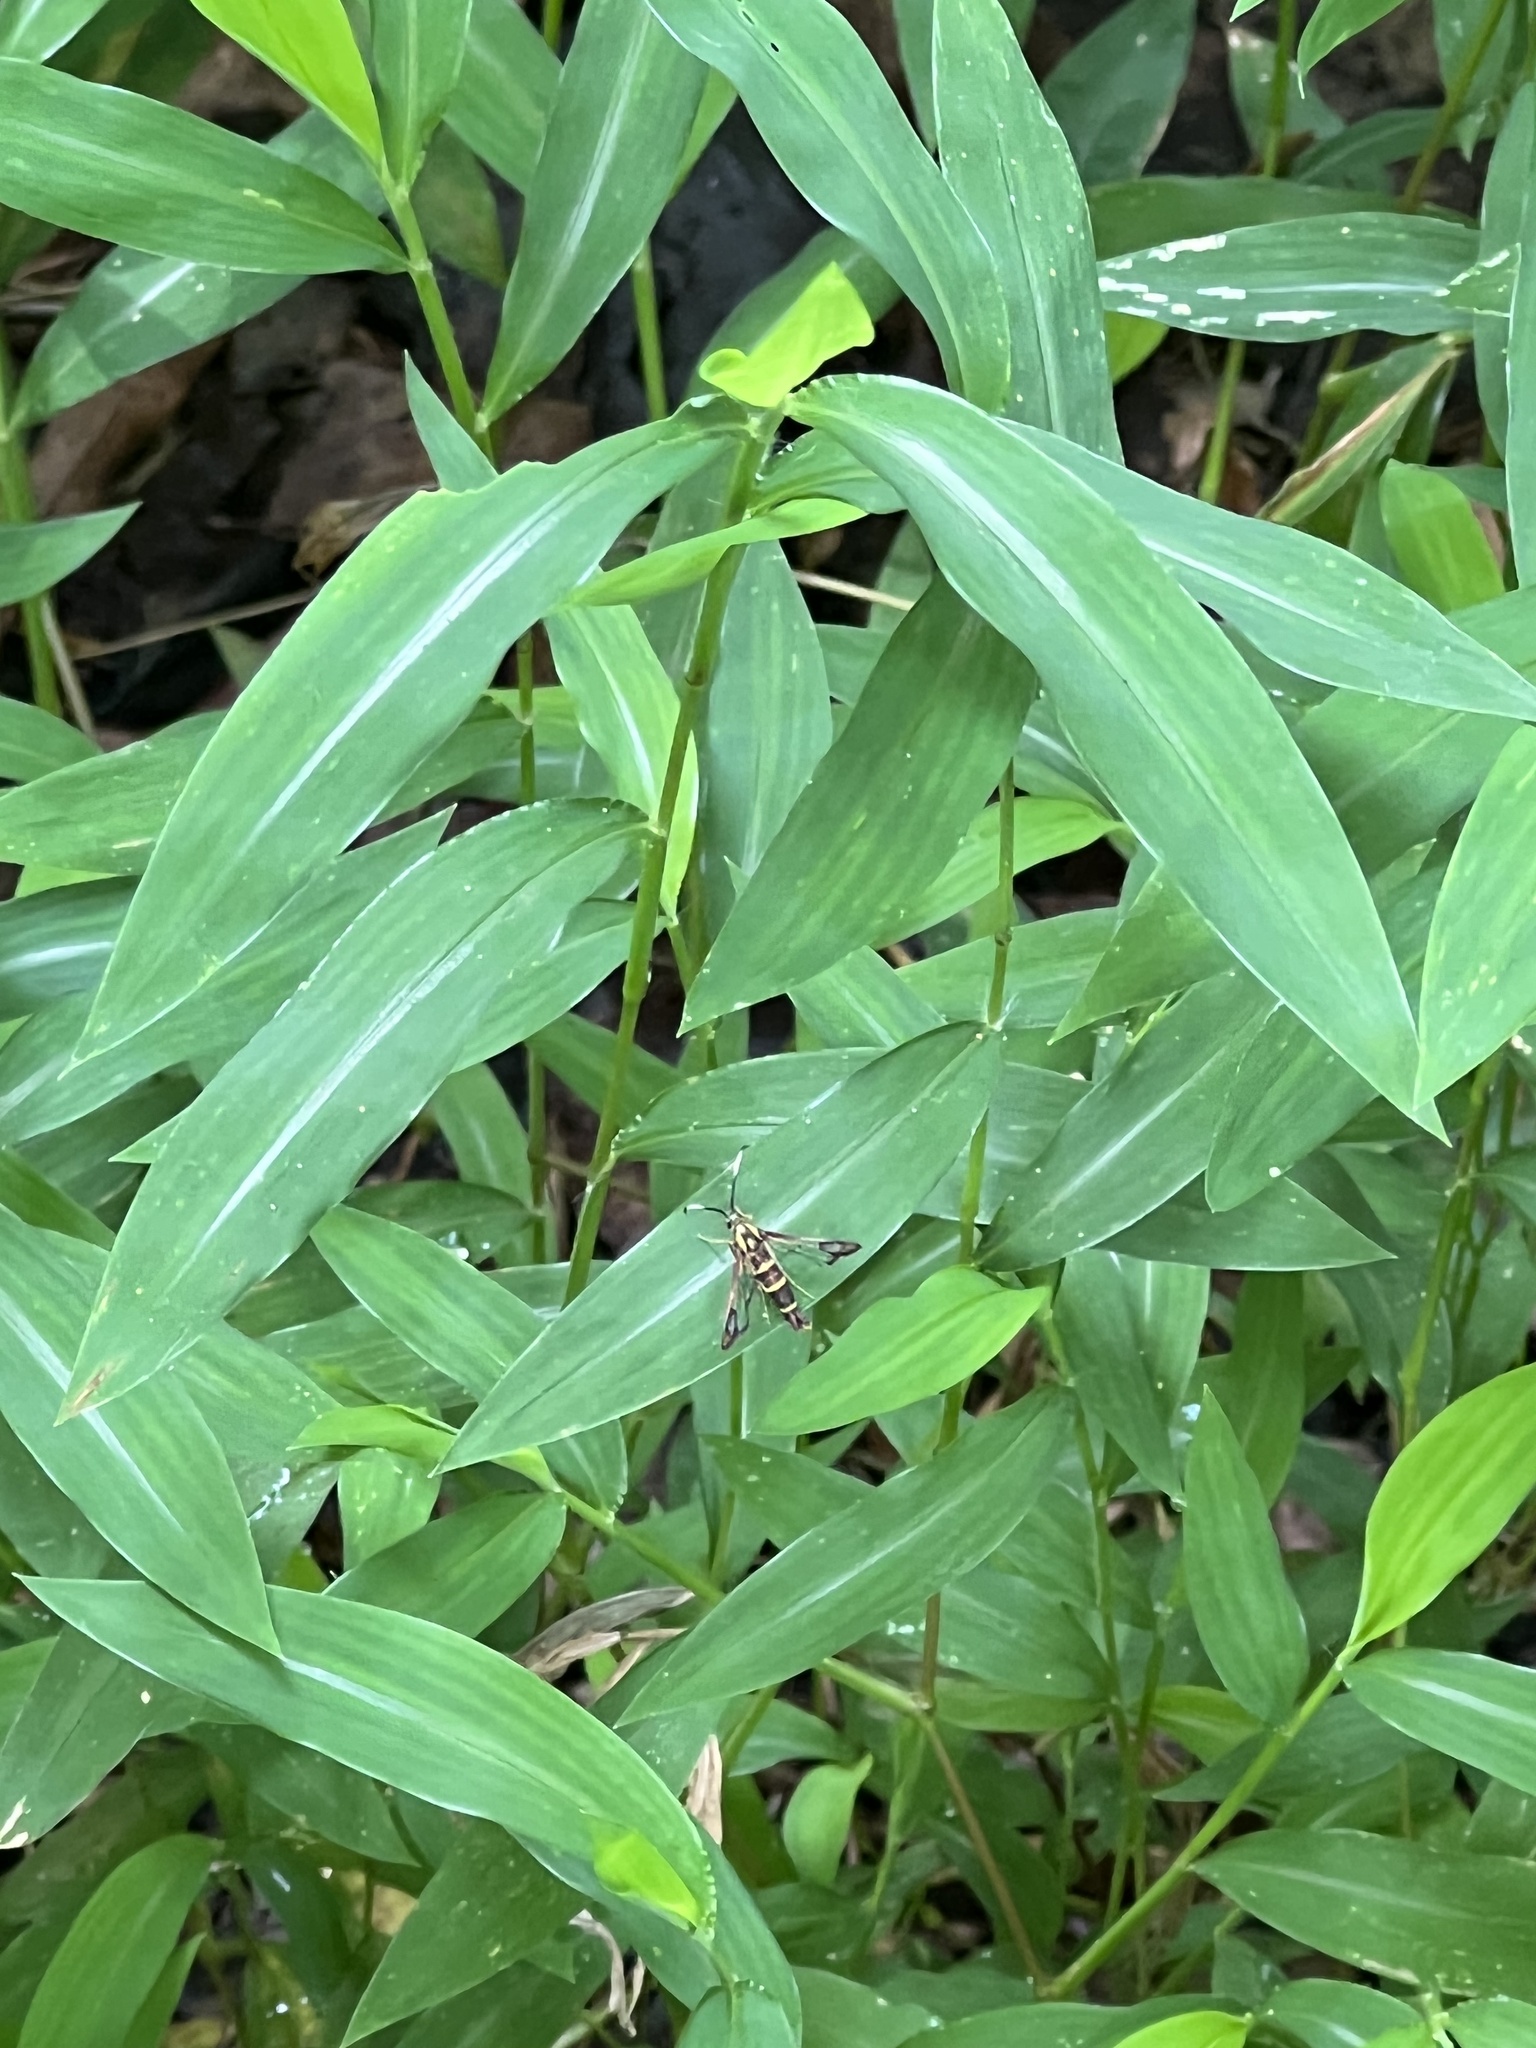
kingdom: Animalia
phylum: Arthropoda
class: Insecta
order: Lepidoptera
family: Sesiidae
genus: Carmenta
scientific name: Carmenta bassiformis
